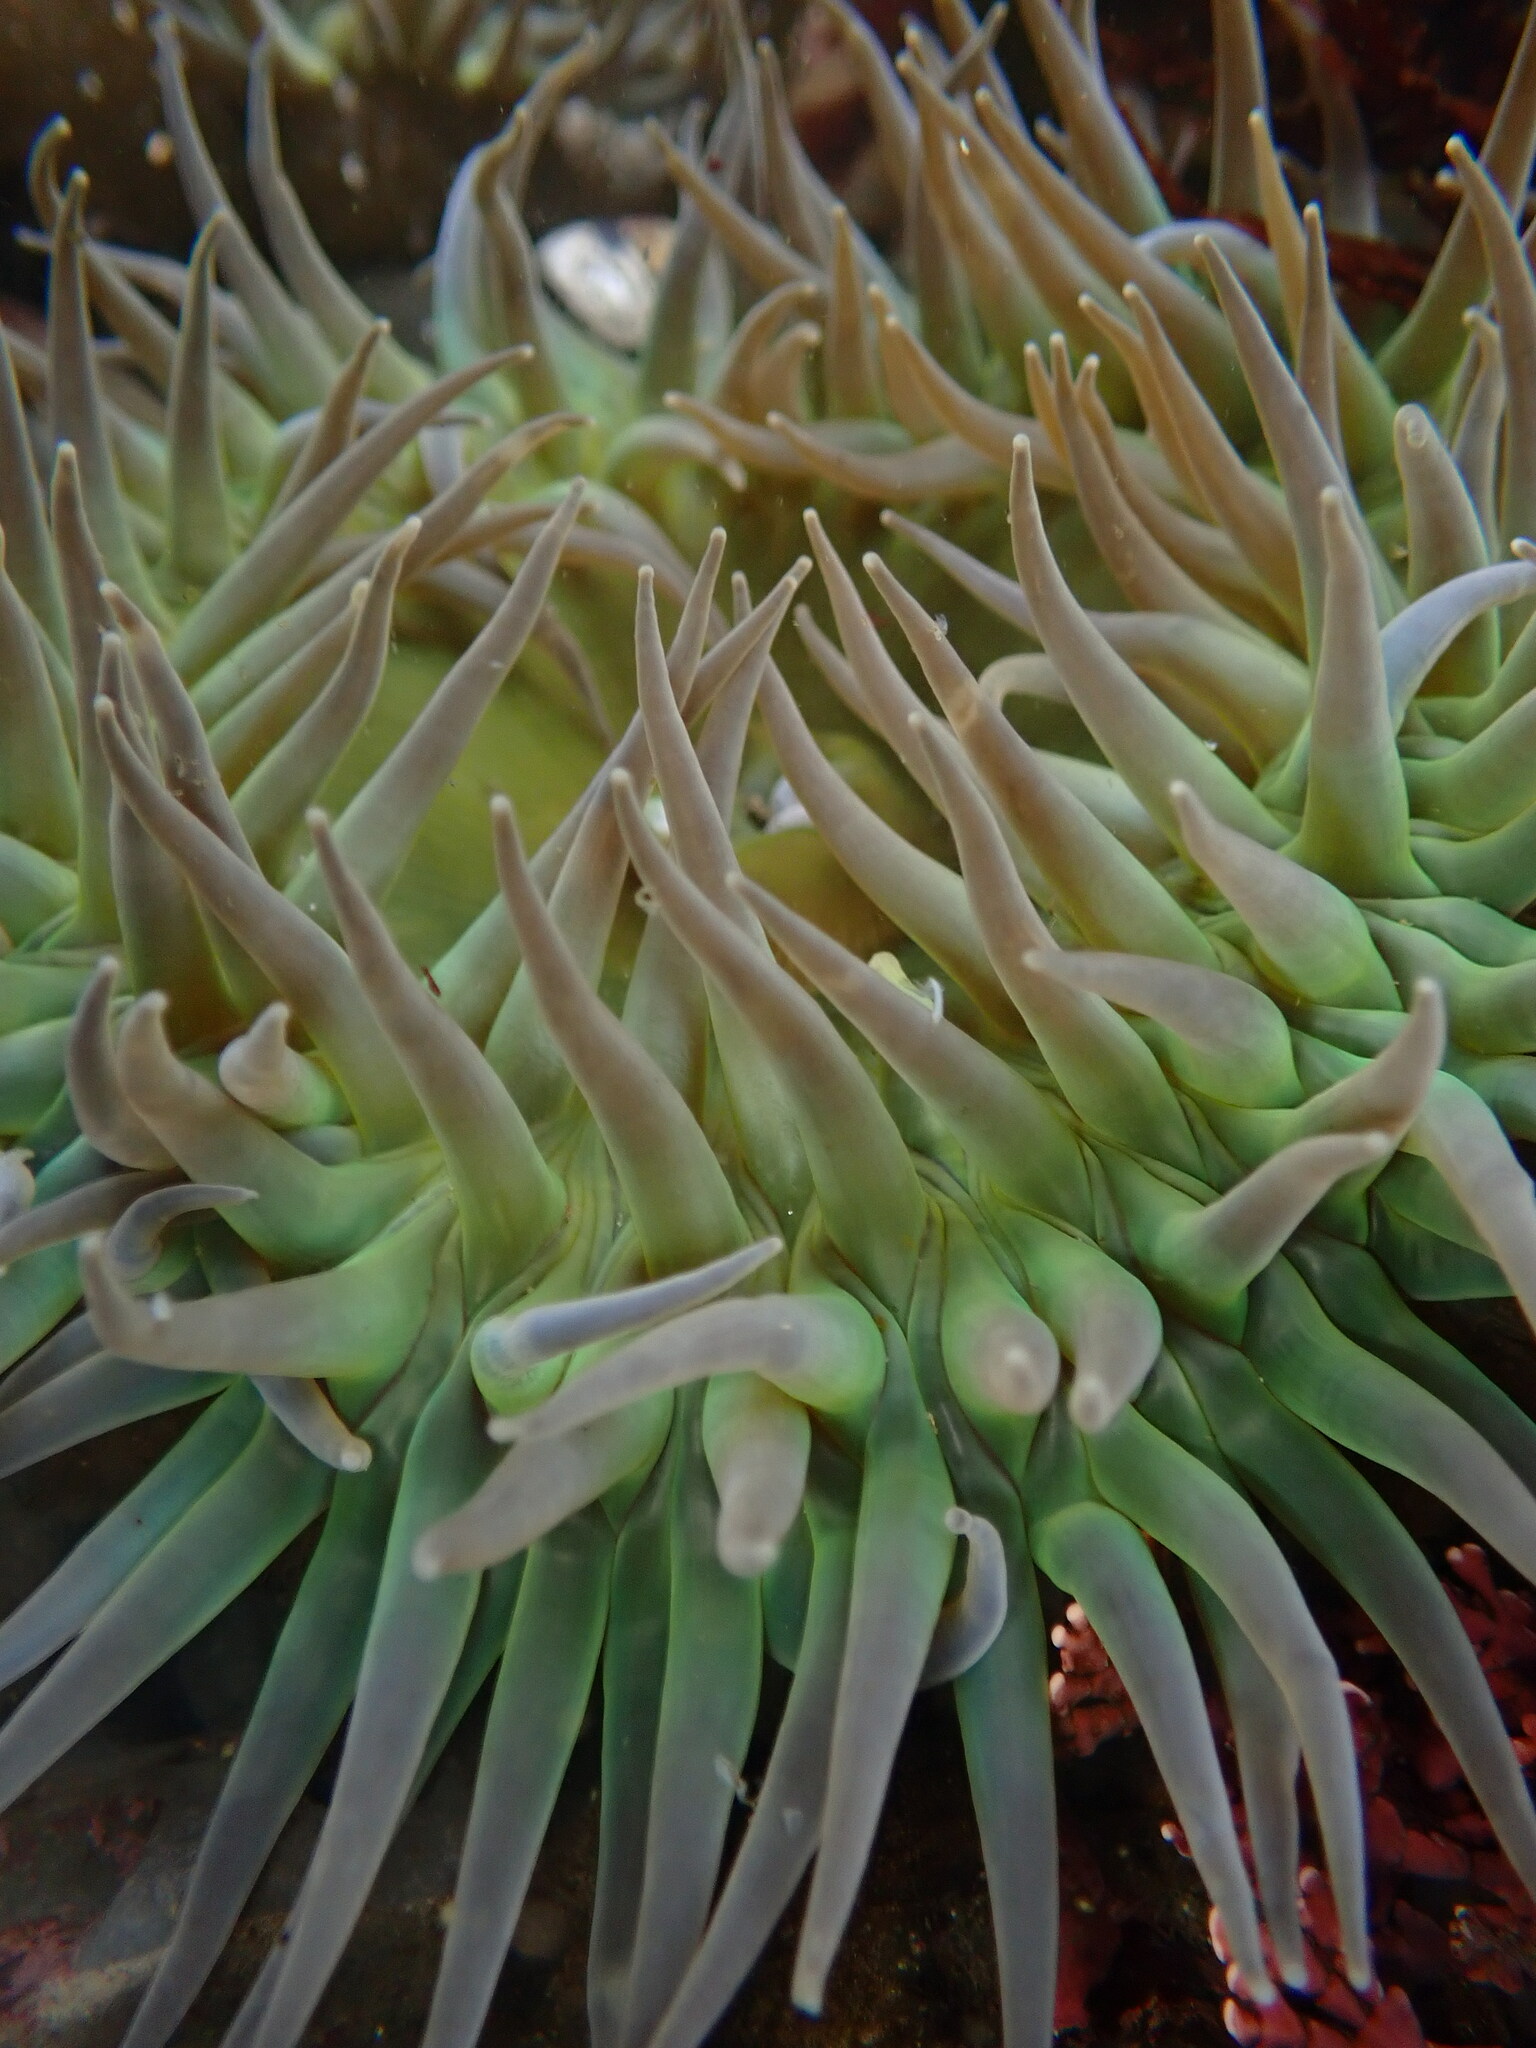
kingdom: Animalia
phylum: Cnidaria
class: Anthozoa
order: Actiniaria
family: Actiniidae
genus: Anthopleura
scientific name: Anthopleura xanthogrammica
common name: Giant green anemone
